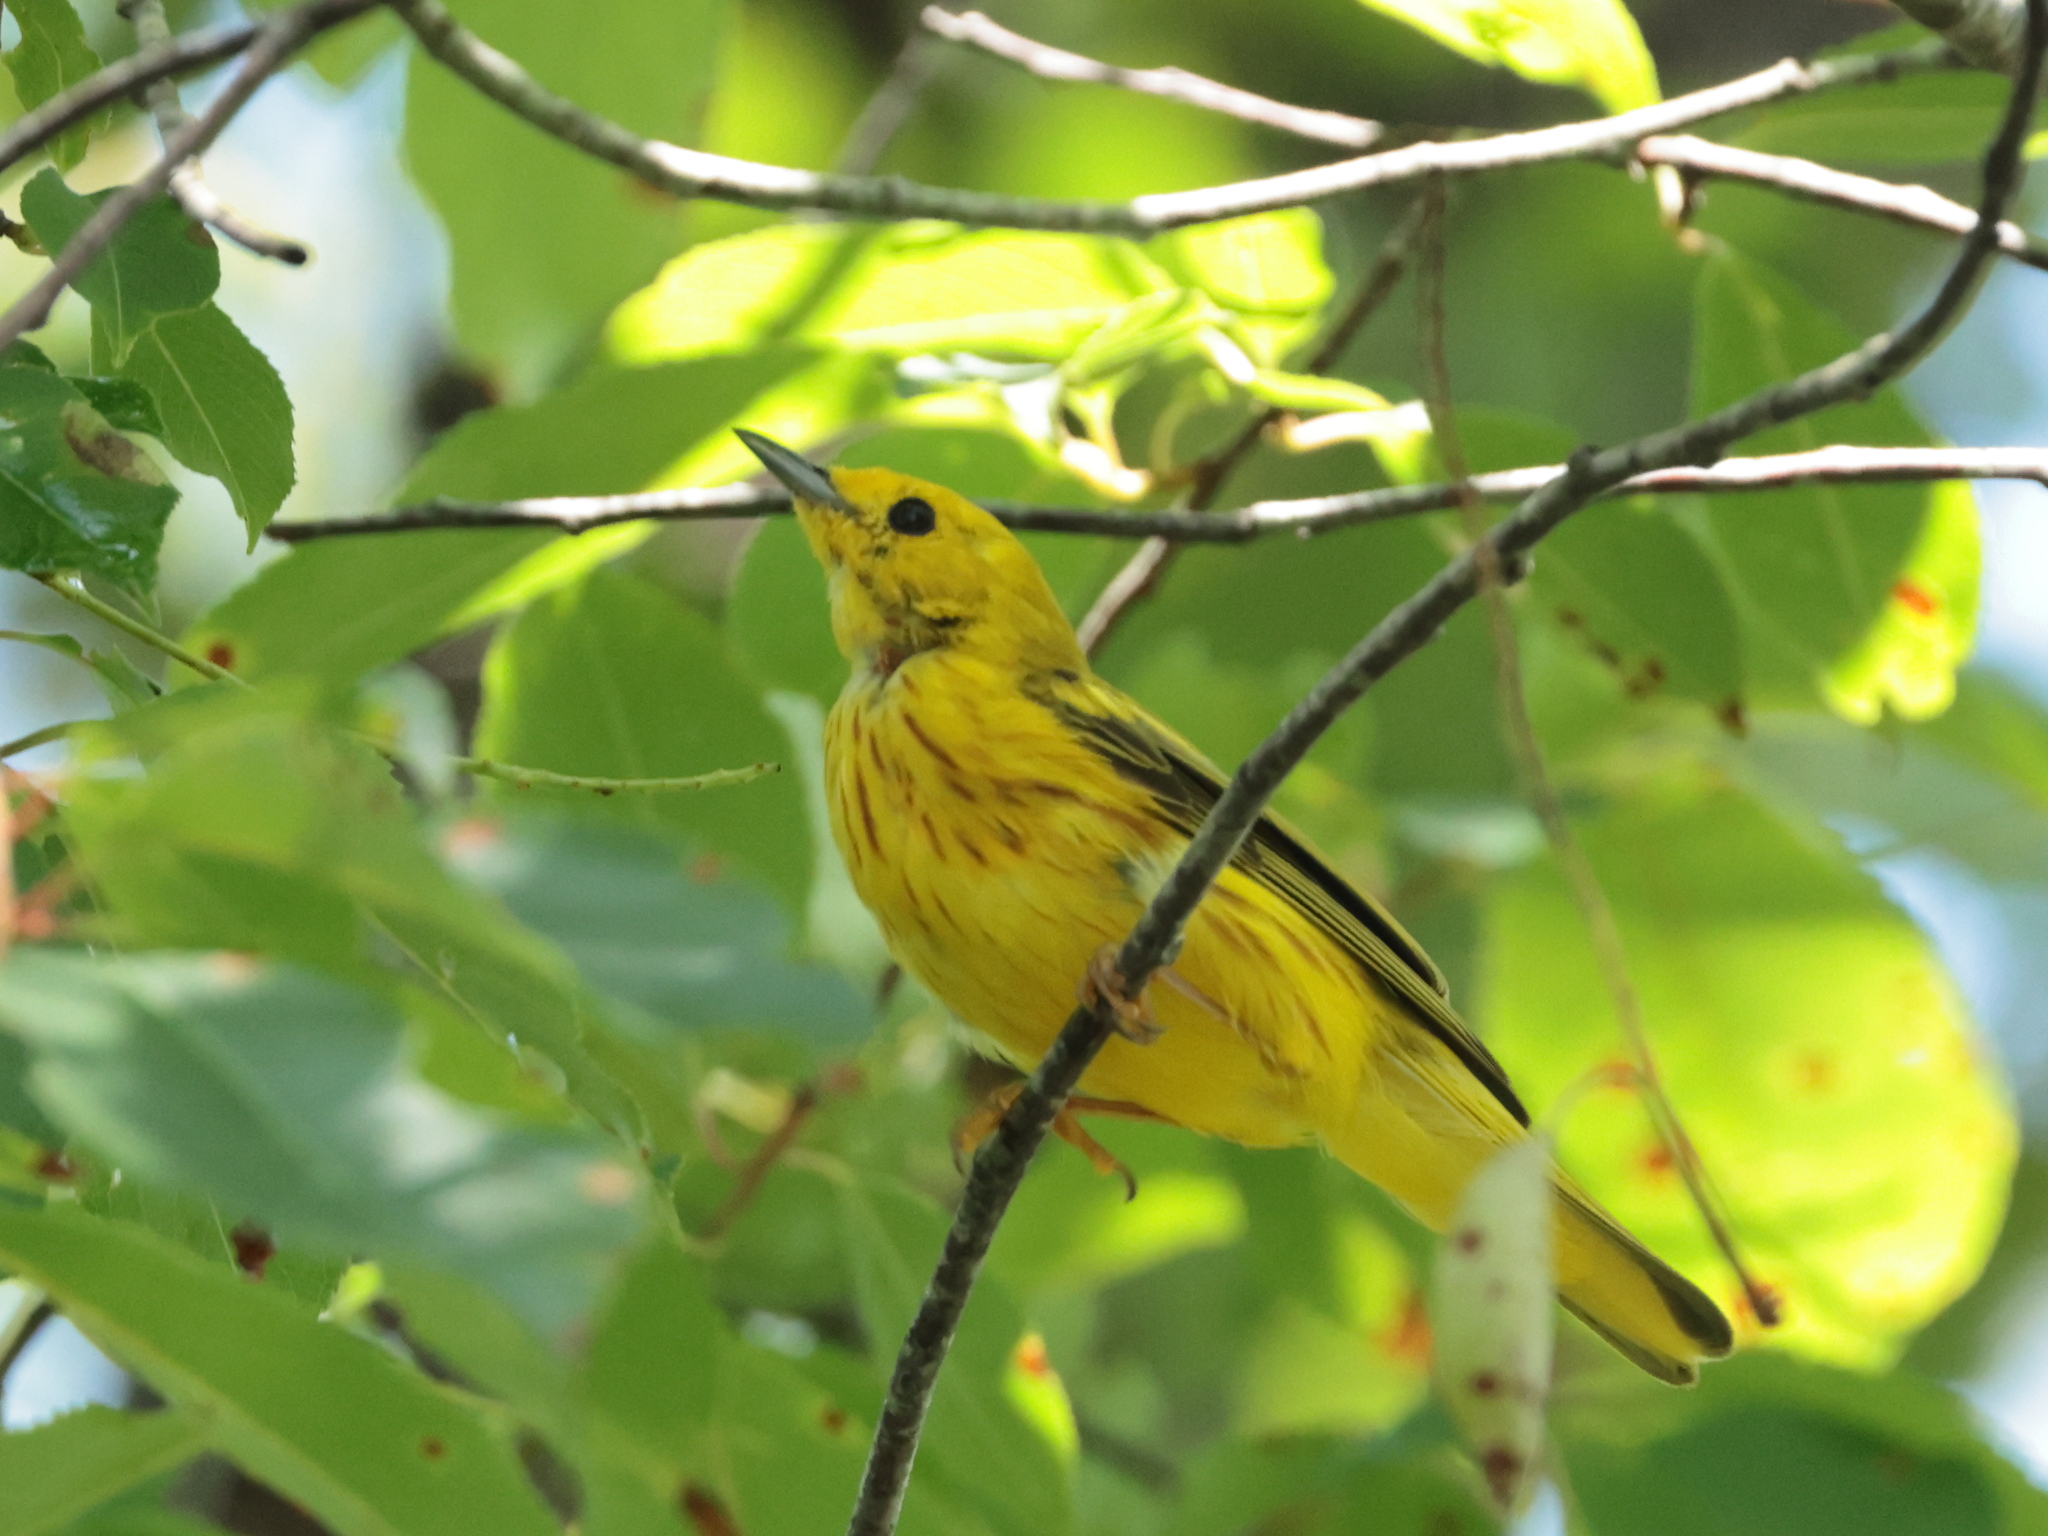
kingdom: Animalia
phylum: Chordata
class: Aves
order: Passeriformes
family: Parulidae
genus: Setophaga
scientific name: Setophaga petechia
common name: Yellow warbler
